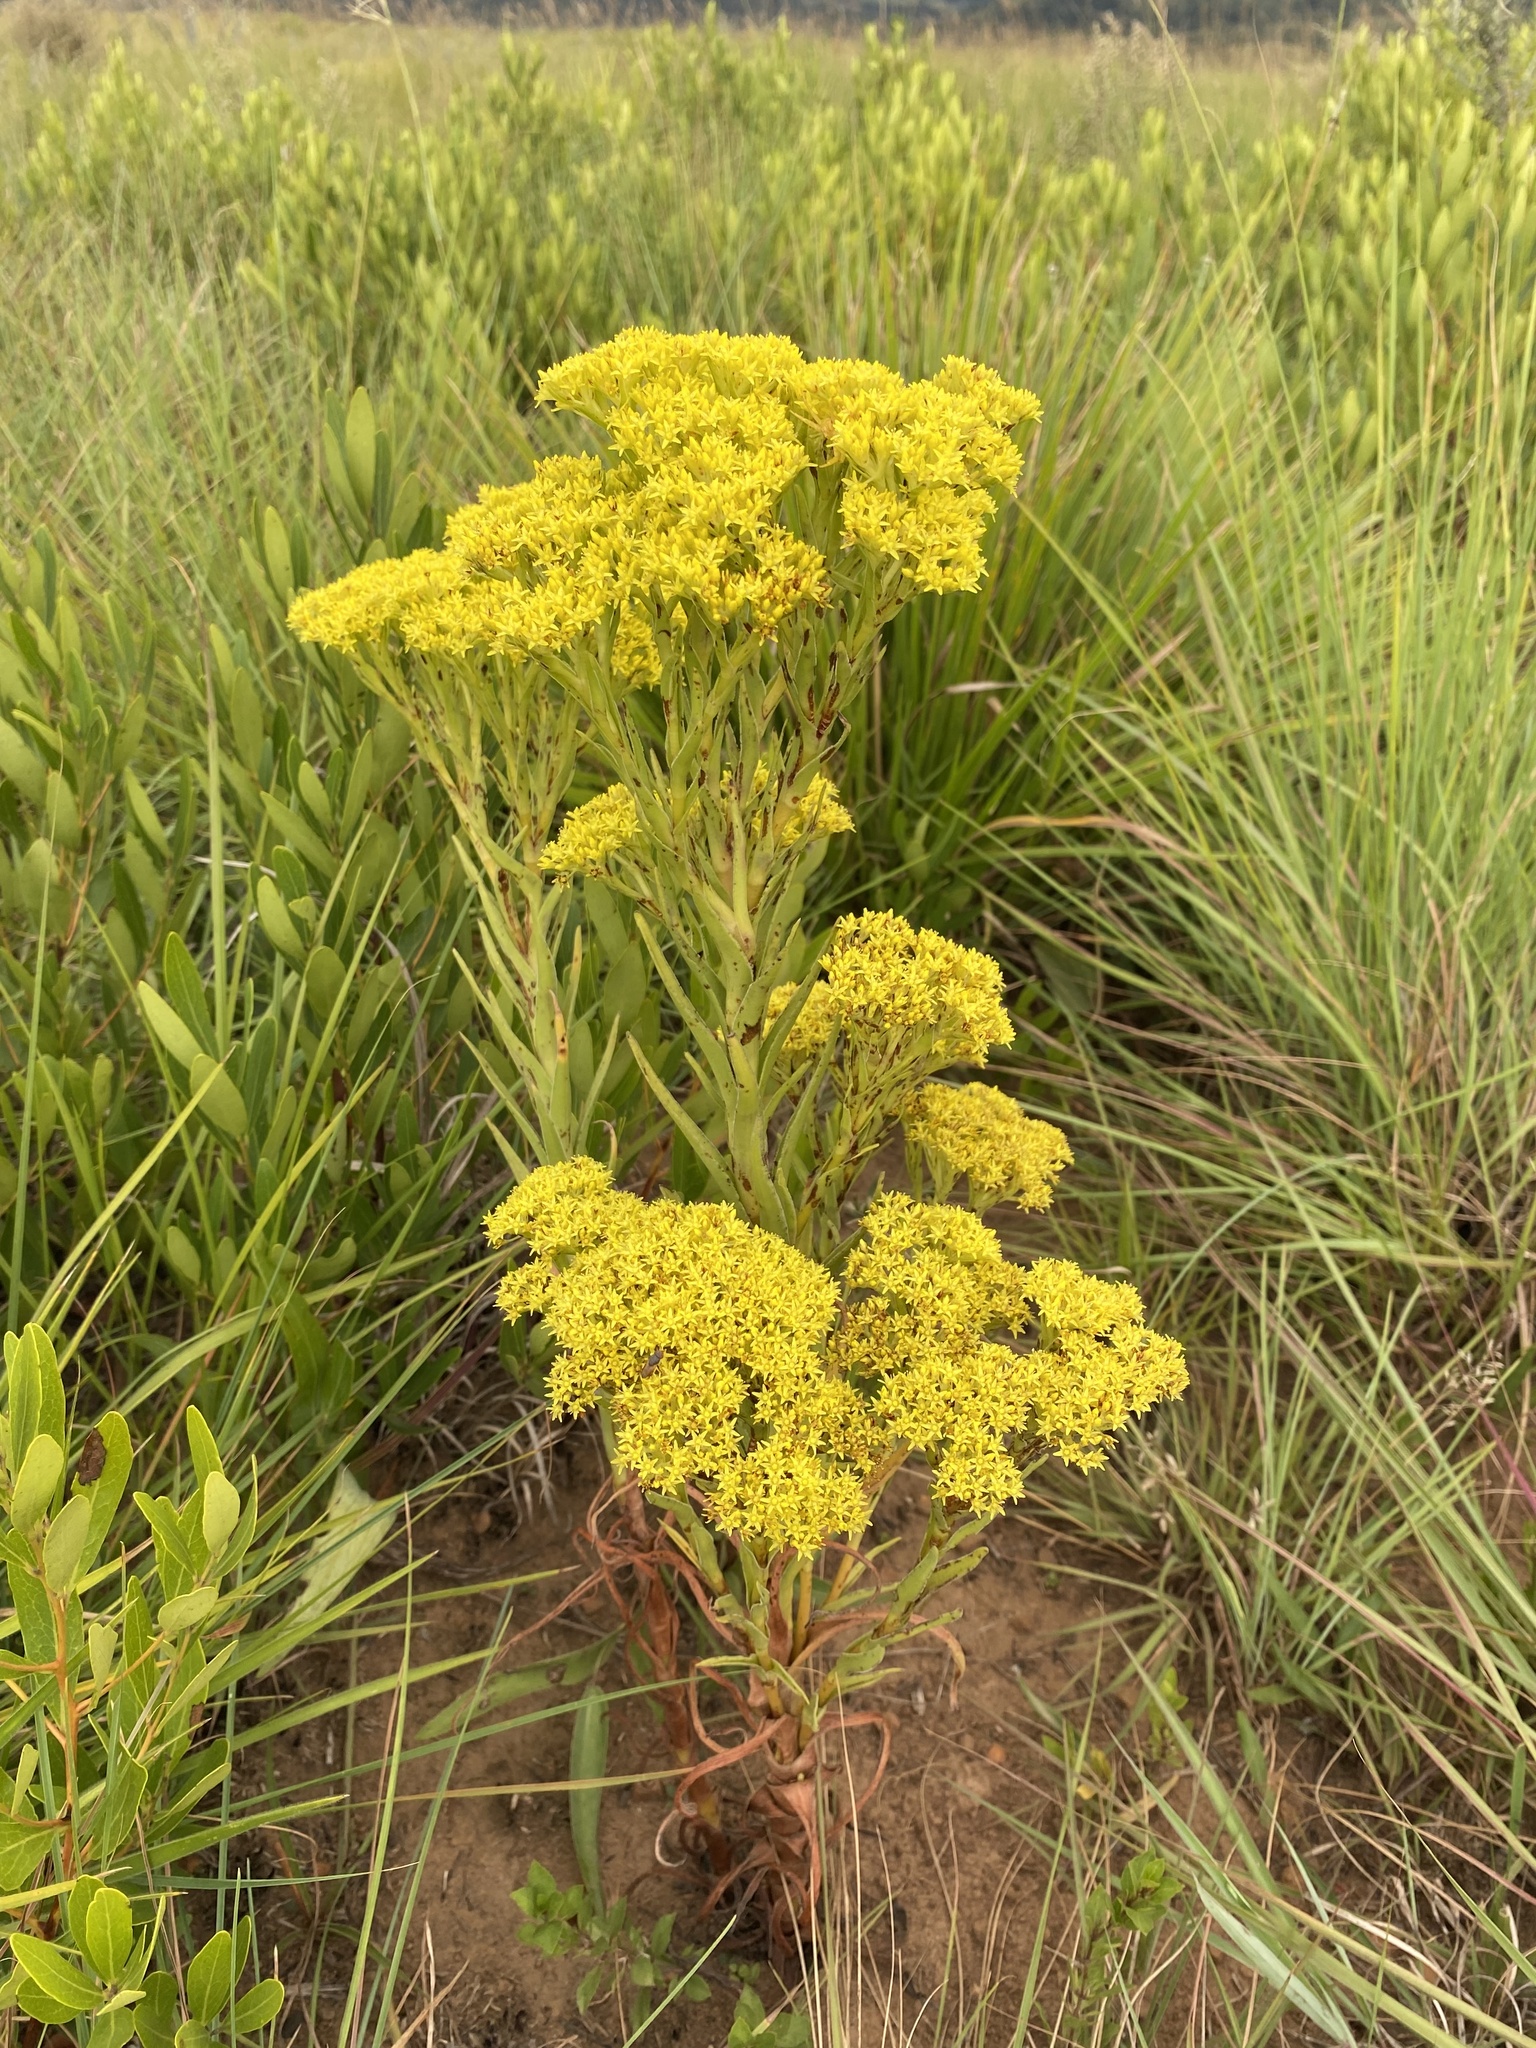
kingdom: Plantae
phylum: Tracheophyta
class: Magnoliopsida
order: Saxifragales
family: Crassulaceae
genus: Crassula
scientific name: Crassula vaginata
